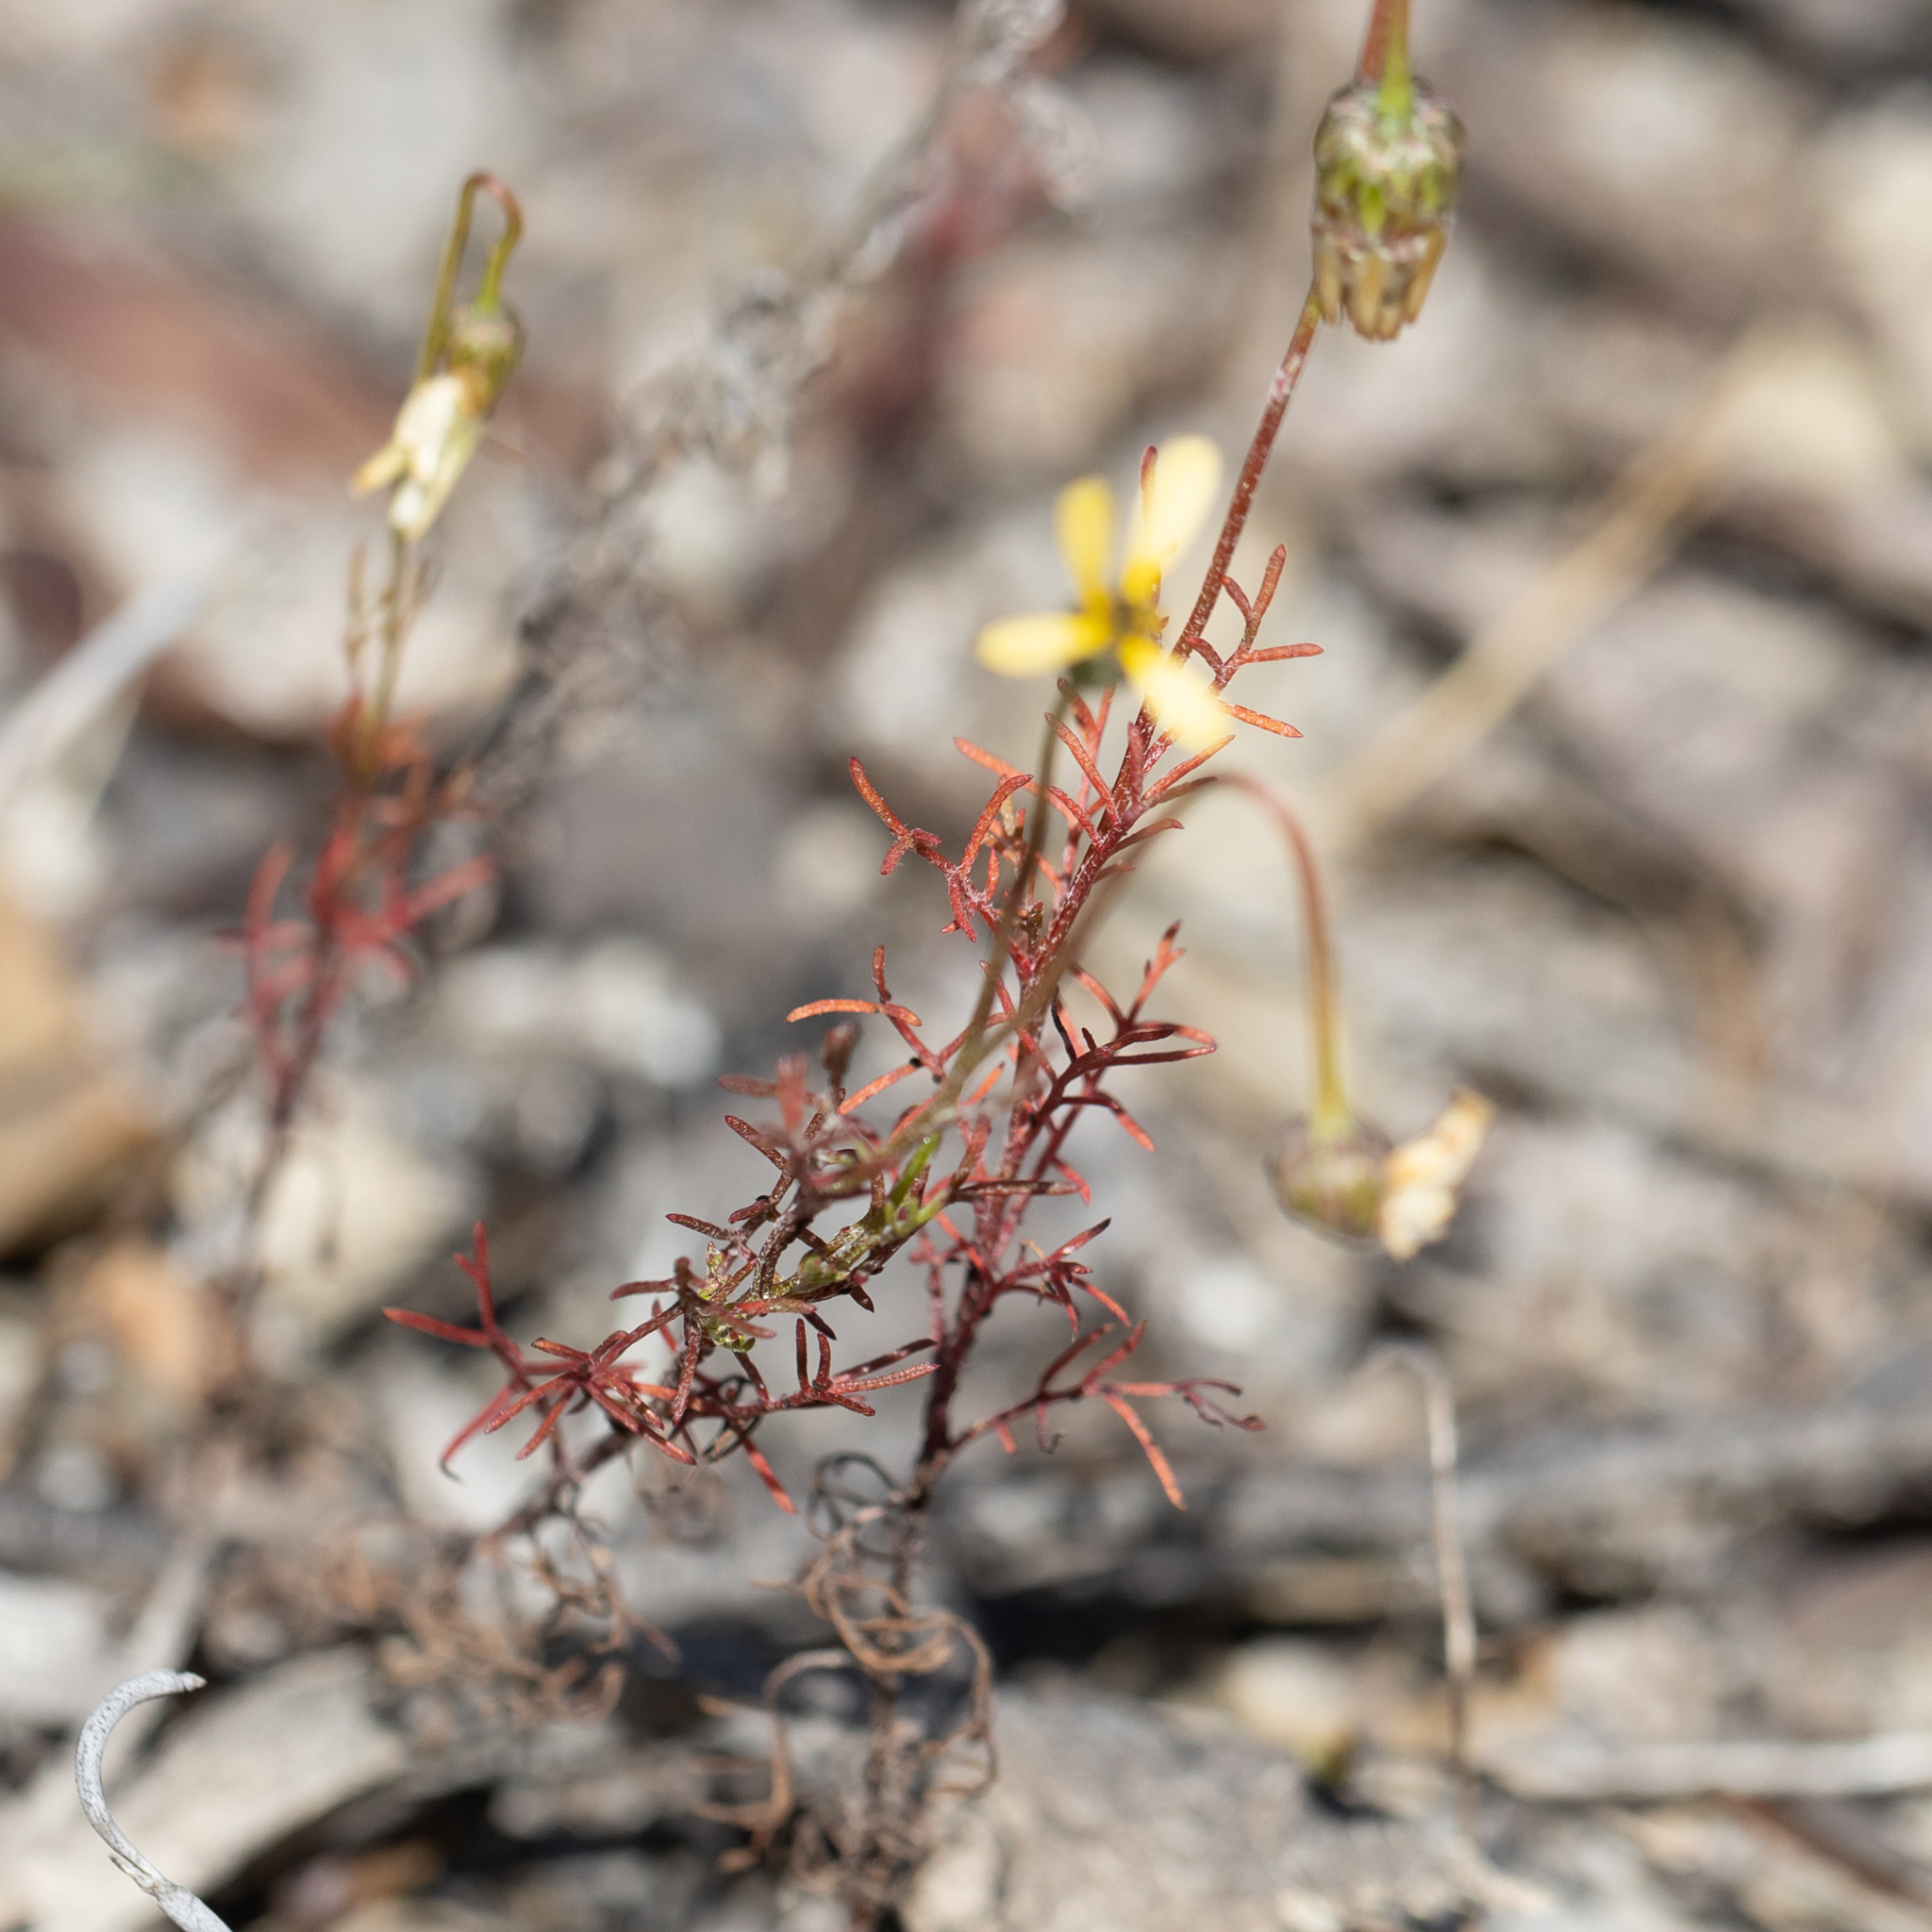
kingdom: Plantae
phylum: Tracheophyta
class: Magnoliopsida
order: Asterales
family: Asteraceae
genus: Ursinia
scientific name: Ursinia anthemoides
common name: Ursinia
